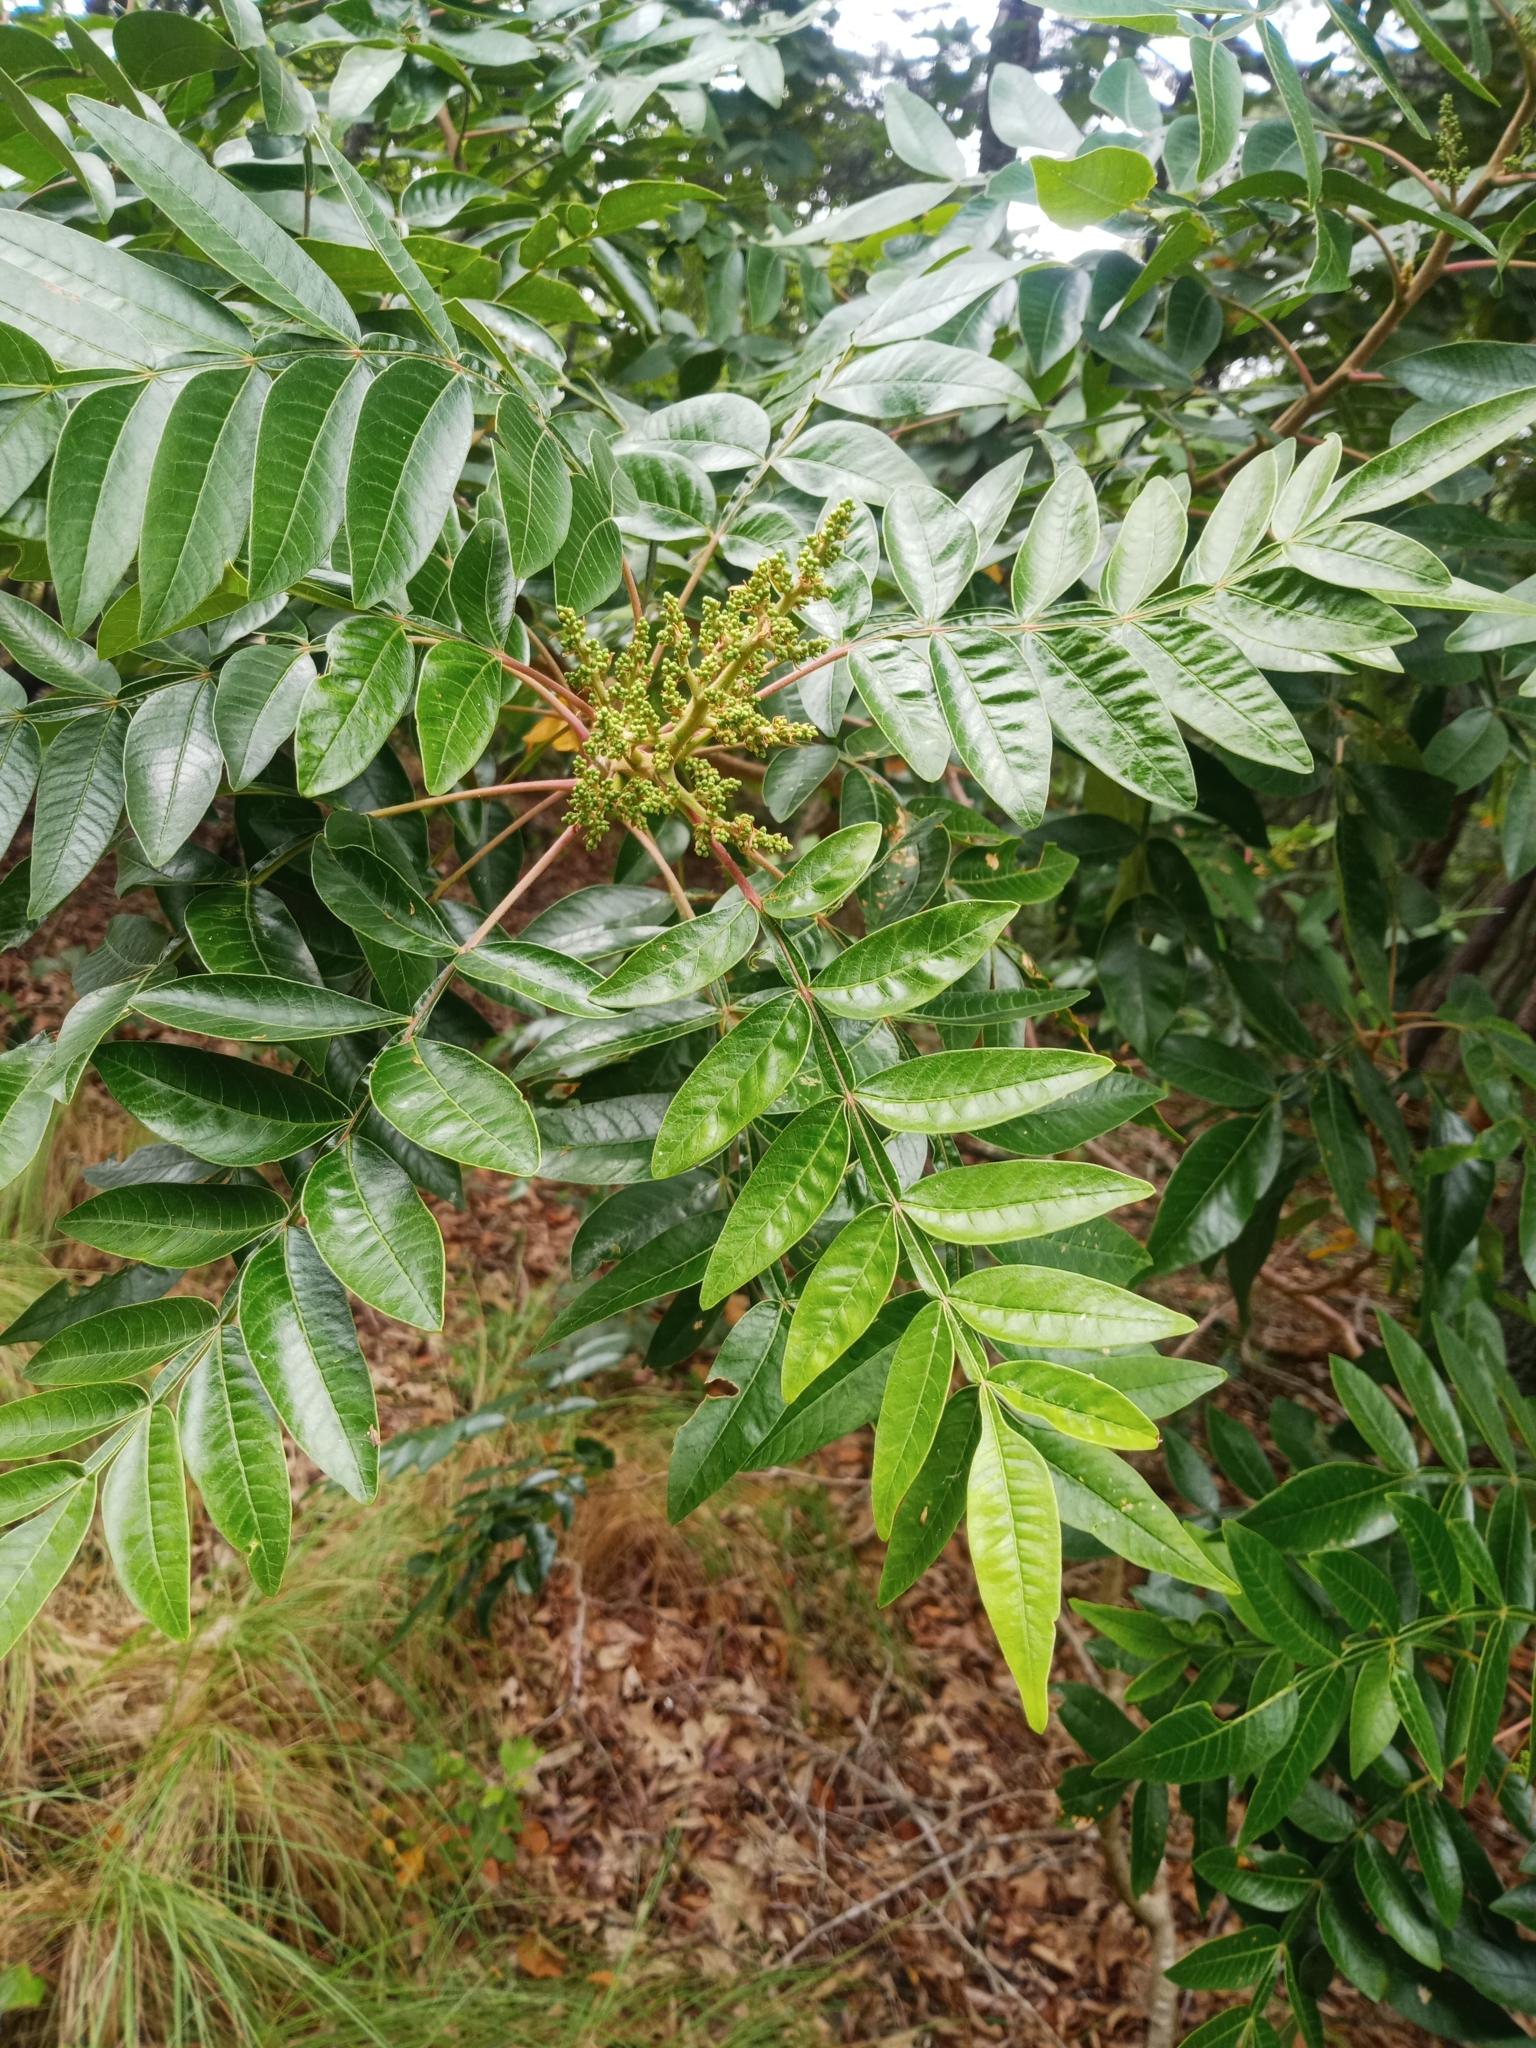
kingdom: Plantae
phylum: Tracheophyta
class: Magnoliopsida
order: Sapindales
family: Anacardiaceae
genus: Rhus
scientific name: Rhus copallina
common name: Shining sumac
